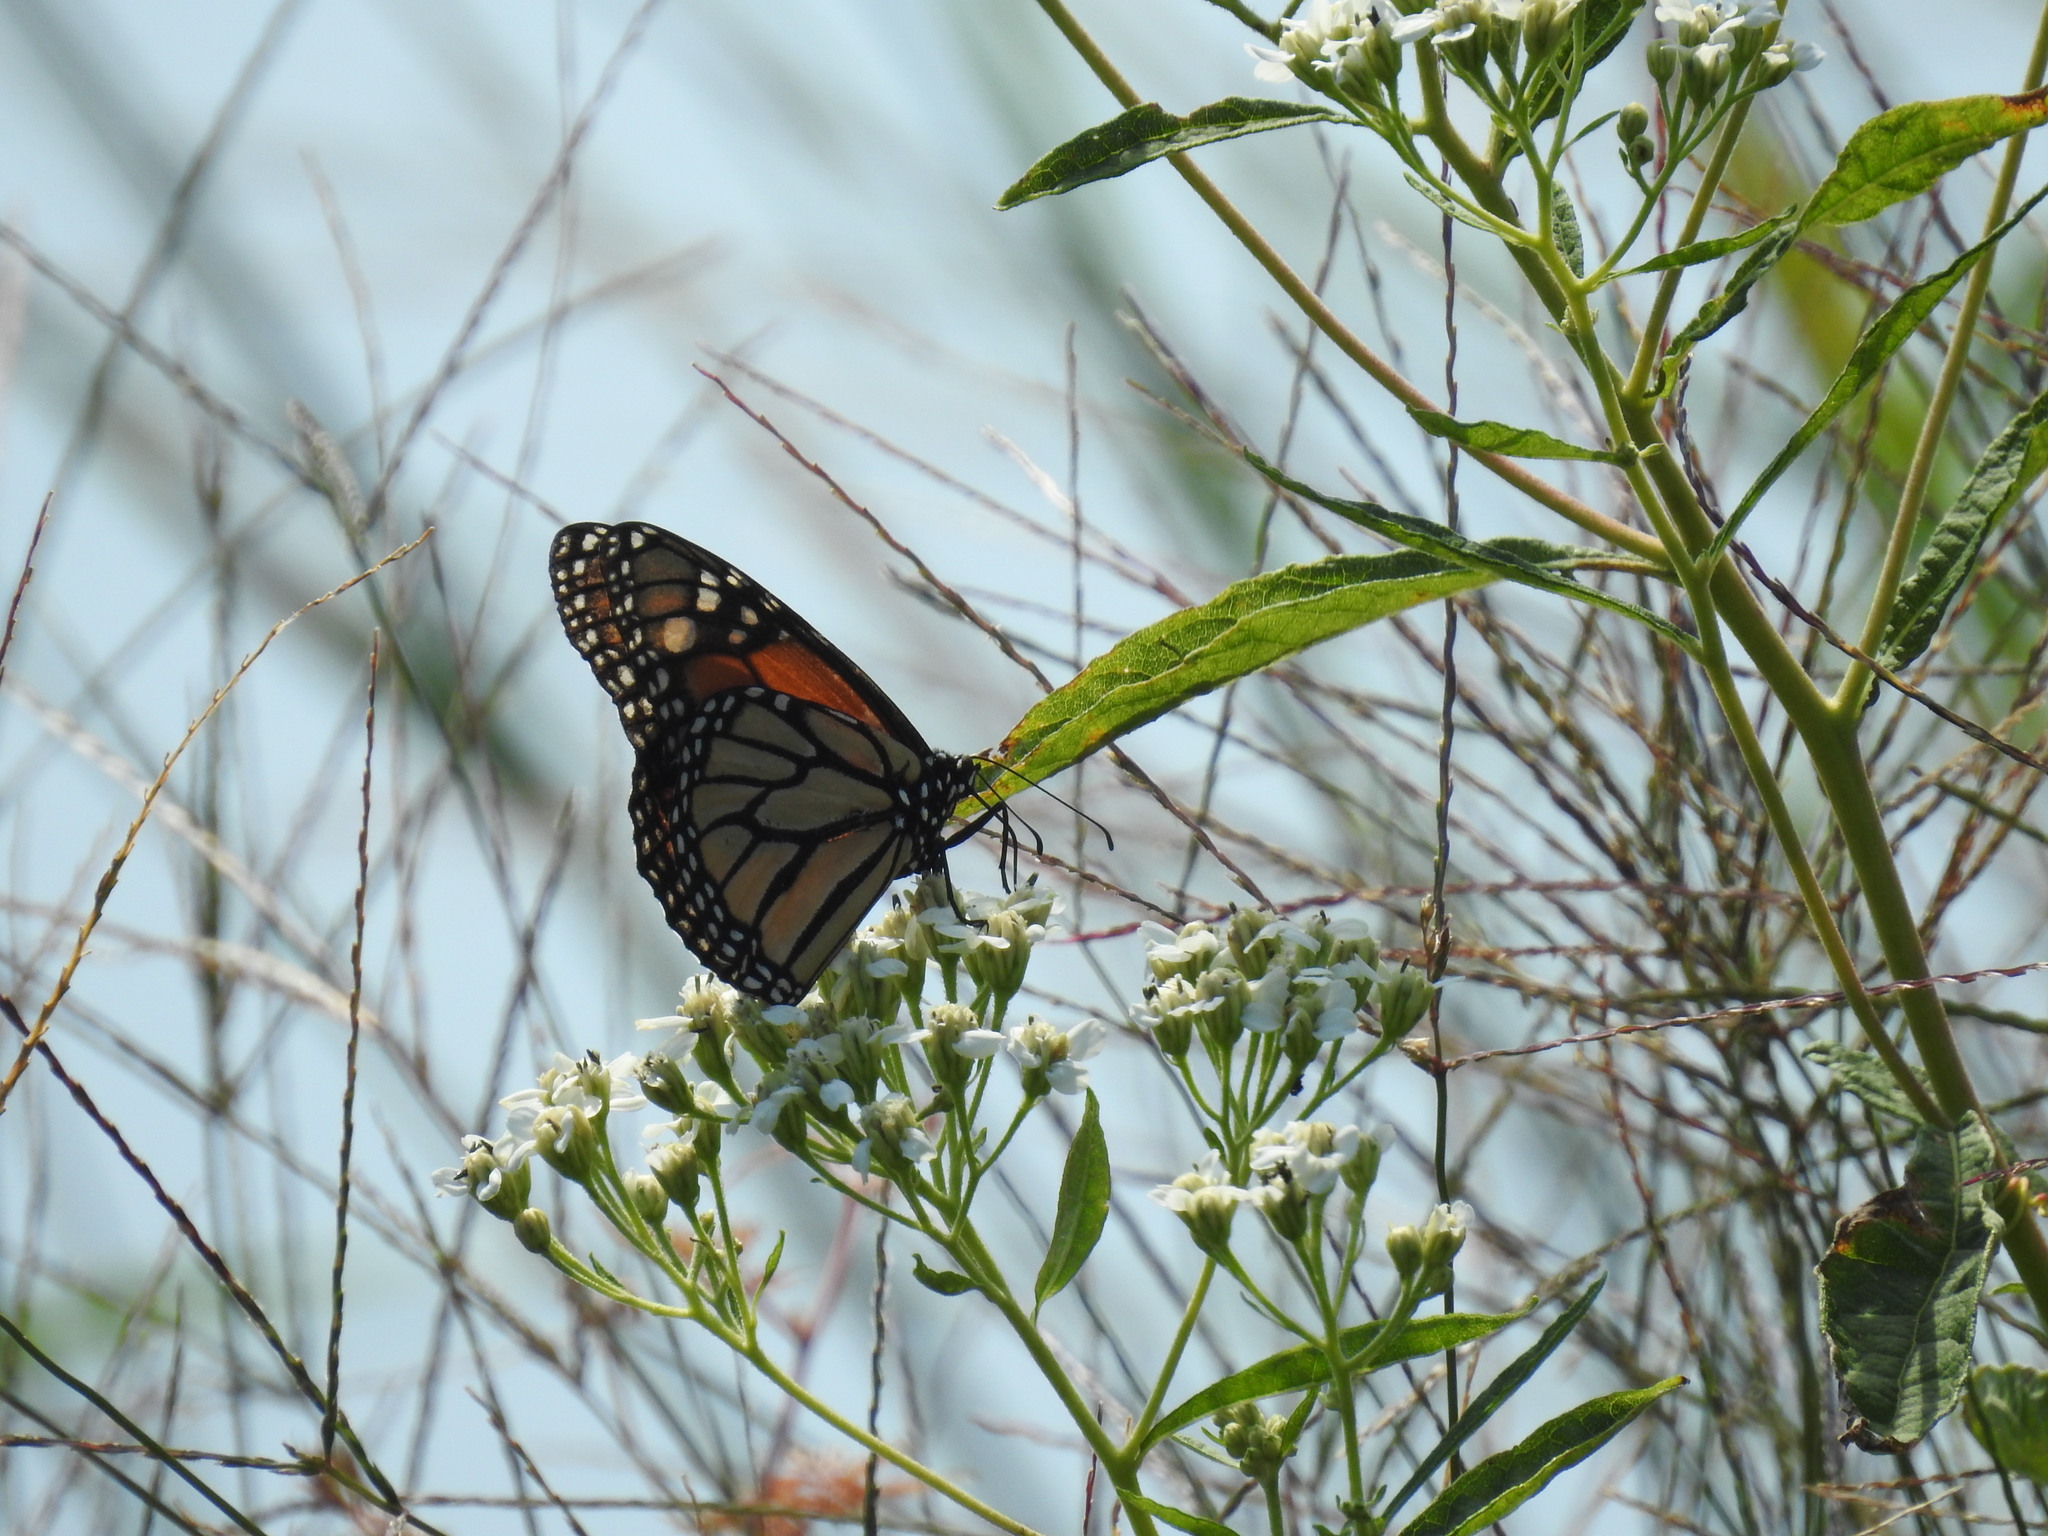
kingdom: Animalia
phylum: Arthropoda
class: Insecta
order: Lepidoptera
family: Nymphalidae
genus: Danaus
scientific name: Danaus plexippus
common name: Monarch
